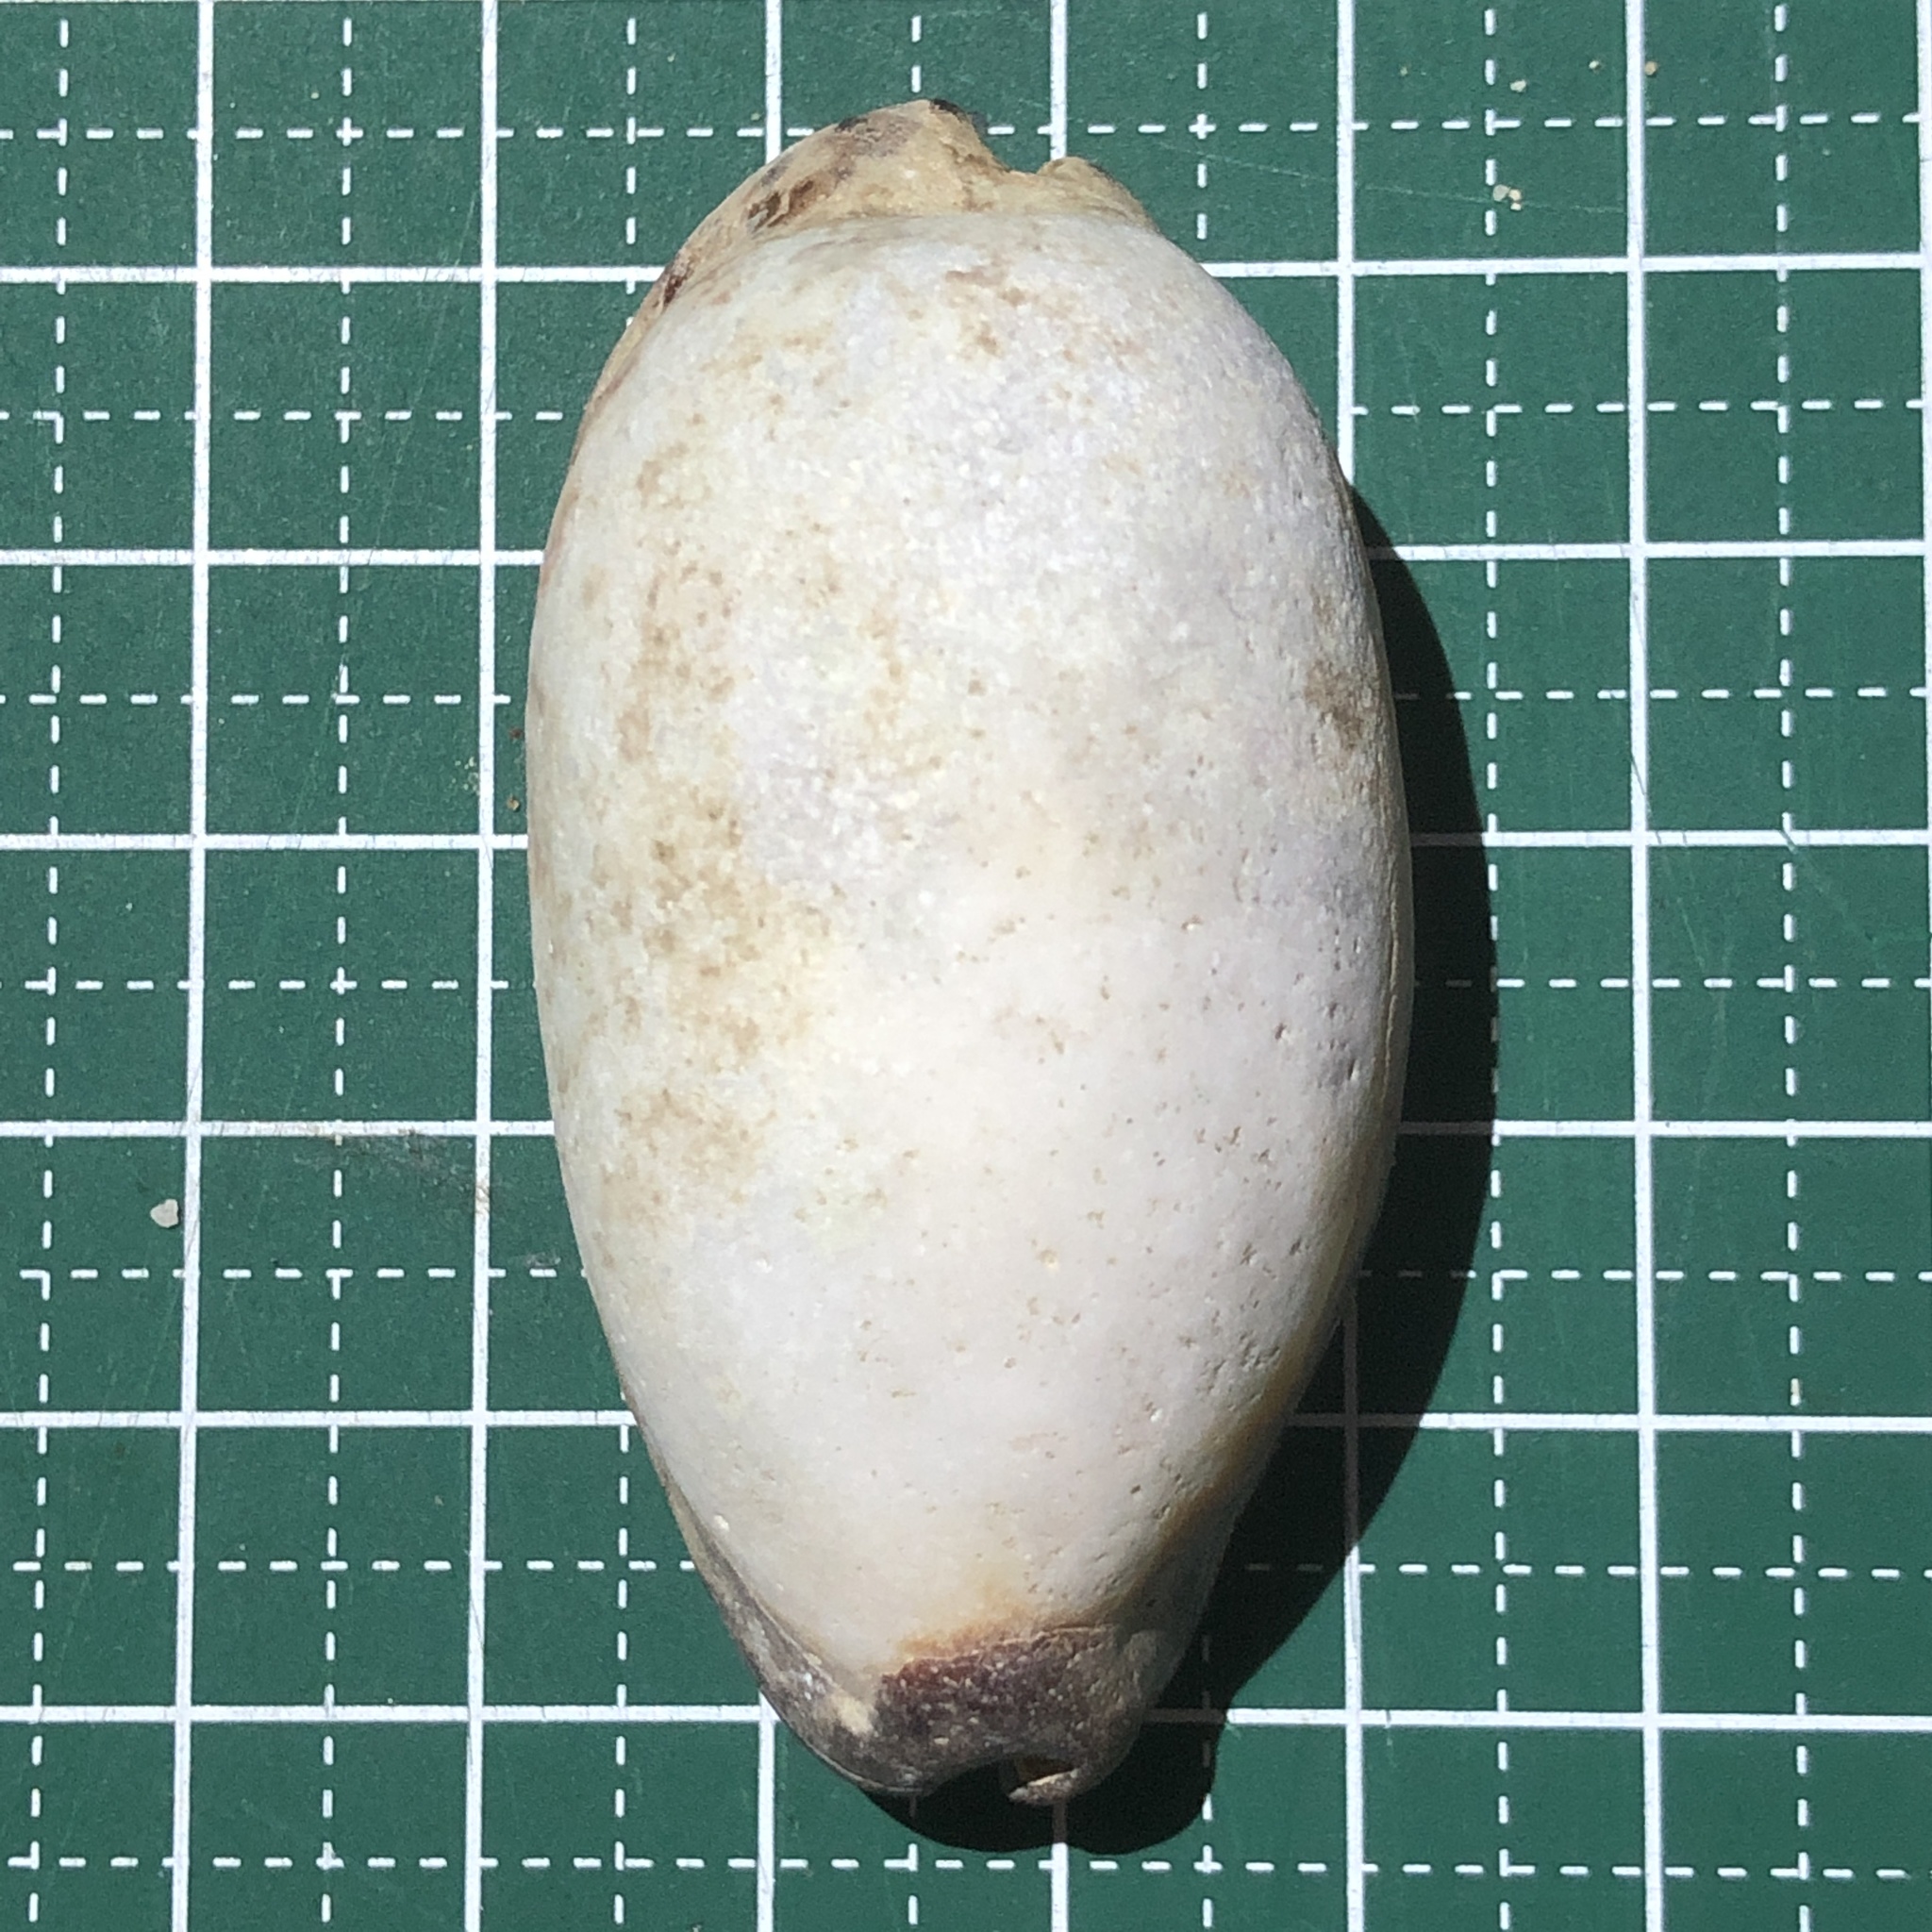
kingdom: Animalia
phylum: Mollusca
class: Gastropoda
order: Littorinimorpha
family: Cypraeidae
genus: Talparia
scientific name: Talparia talpa
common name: Mole cowrie
